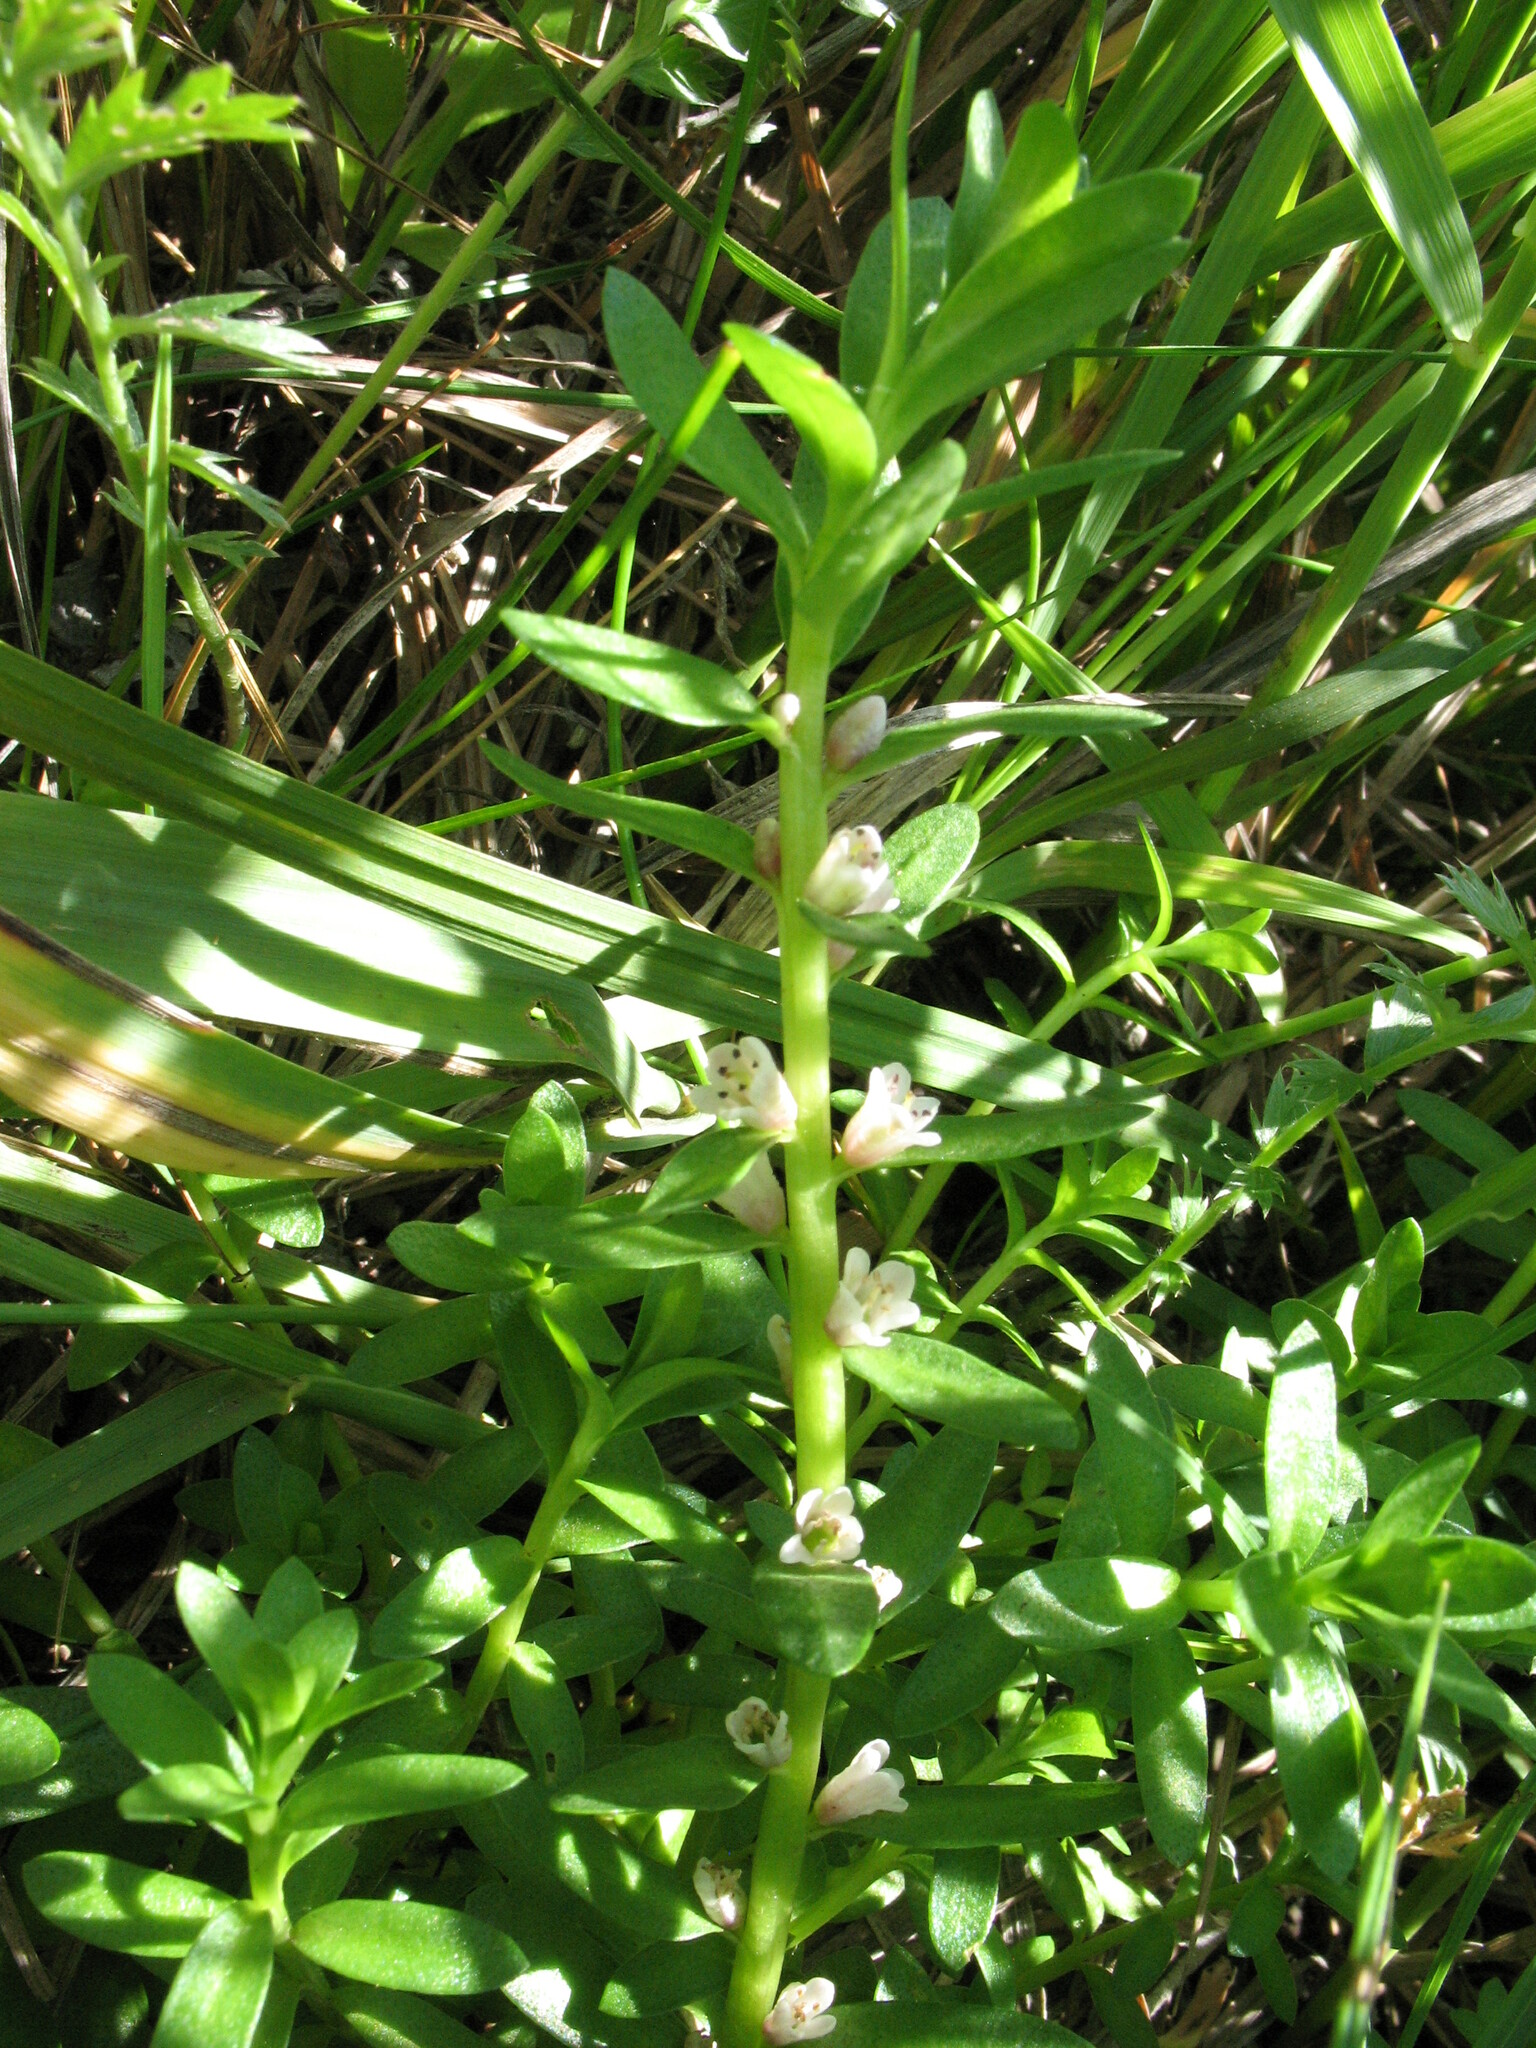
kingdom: Plantae
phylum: Tracheophyta
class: Magnoliopsida
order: Ericales
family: Primulaceae
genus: Lysimachia
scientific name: Lysimachia maritima
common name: Sea milkwort
